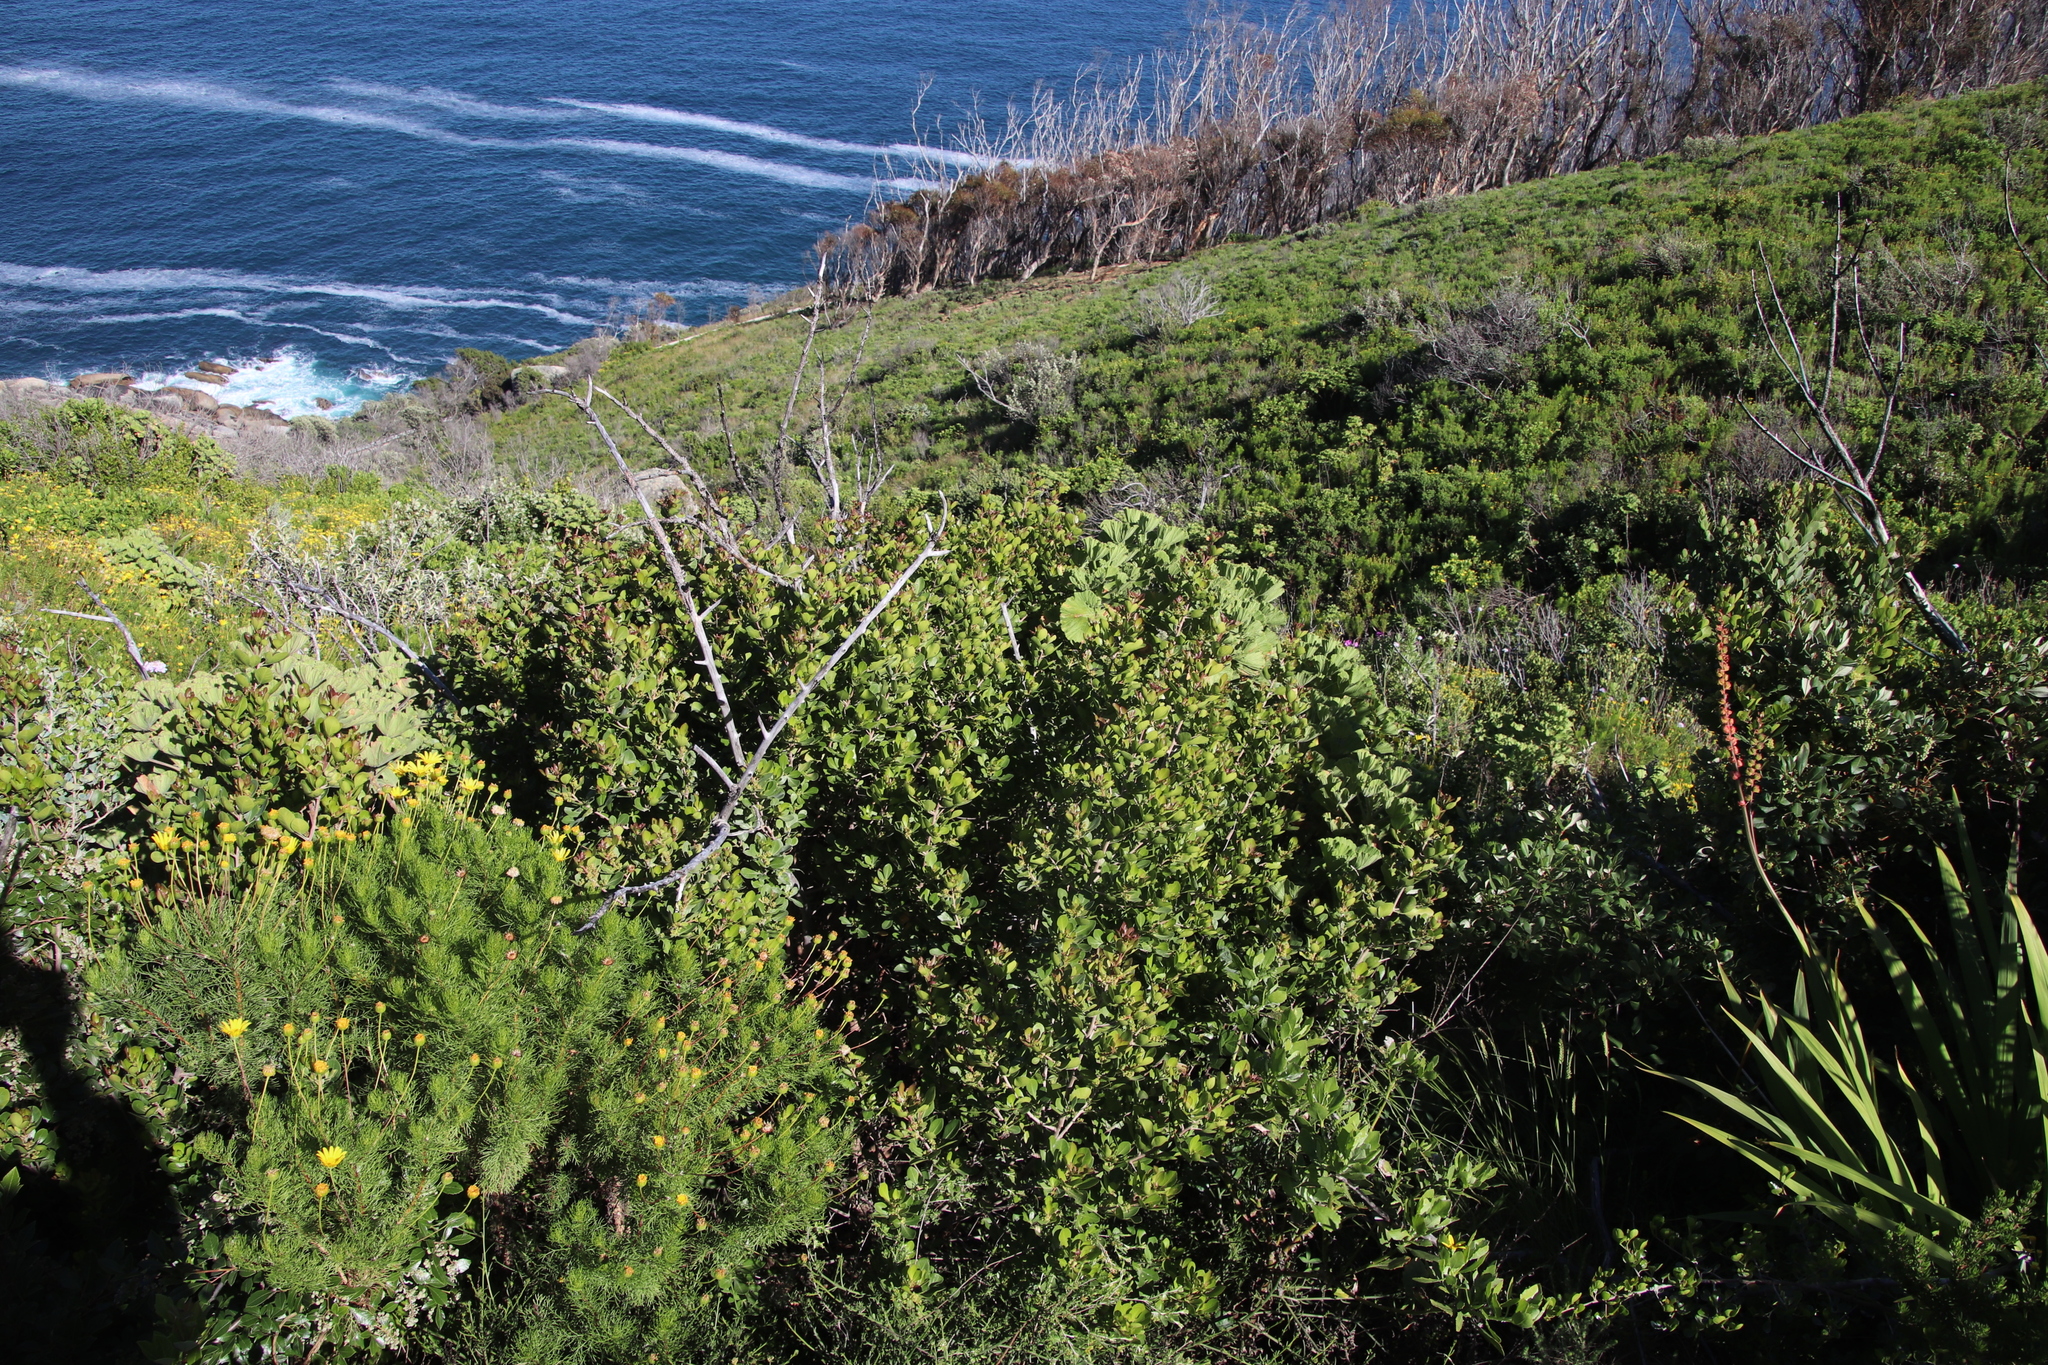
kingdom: Plantae
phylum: Tracheophyta
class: Magnoliopsida
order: Sapindales
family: Anacardiaceae
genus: Searsia
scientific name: Searsia lucida
